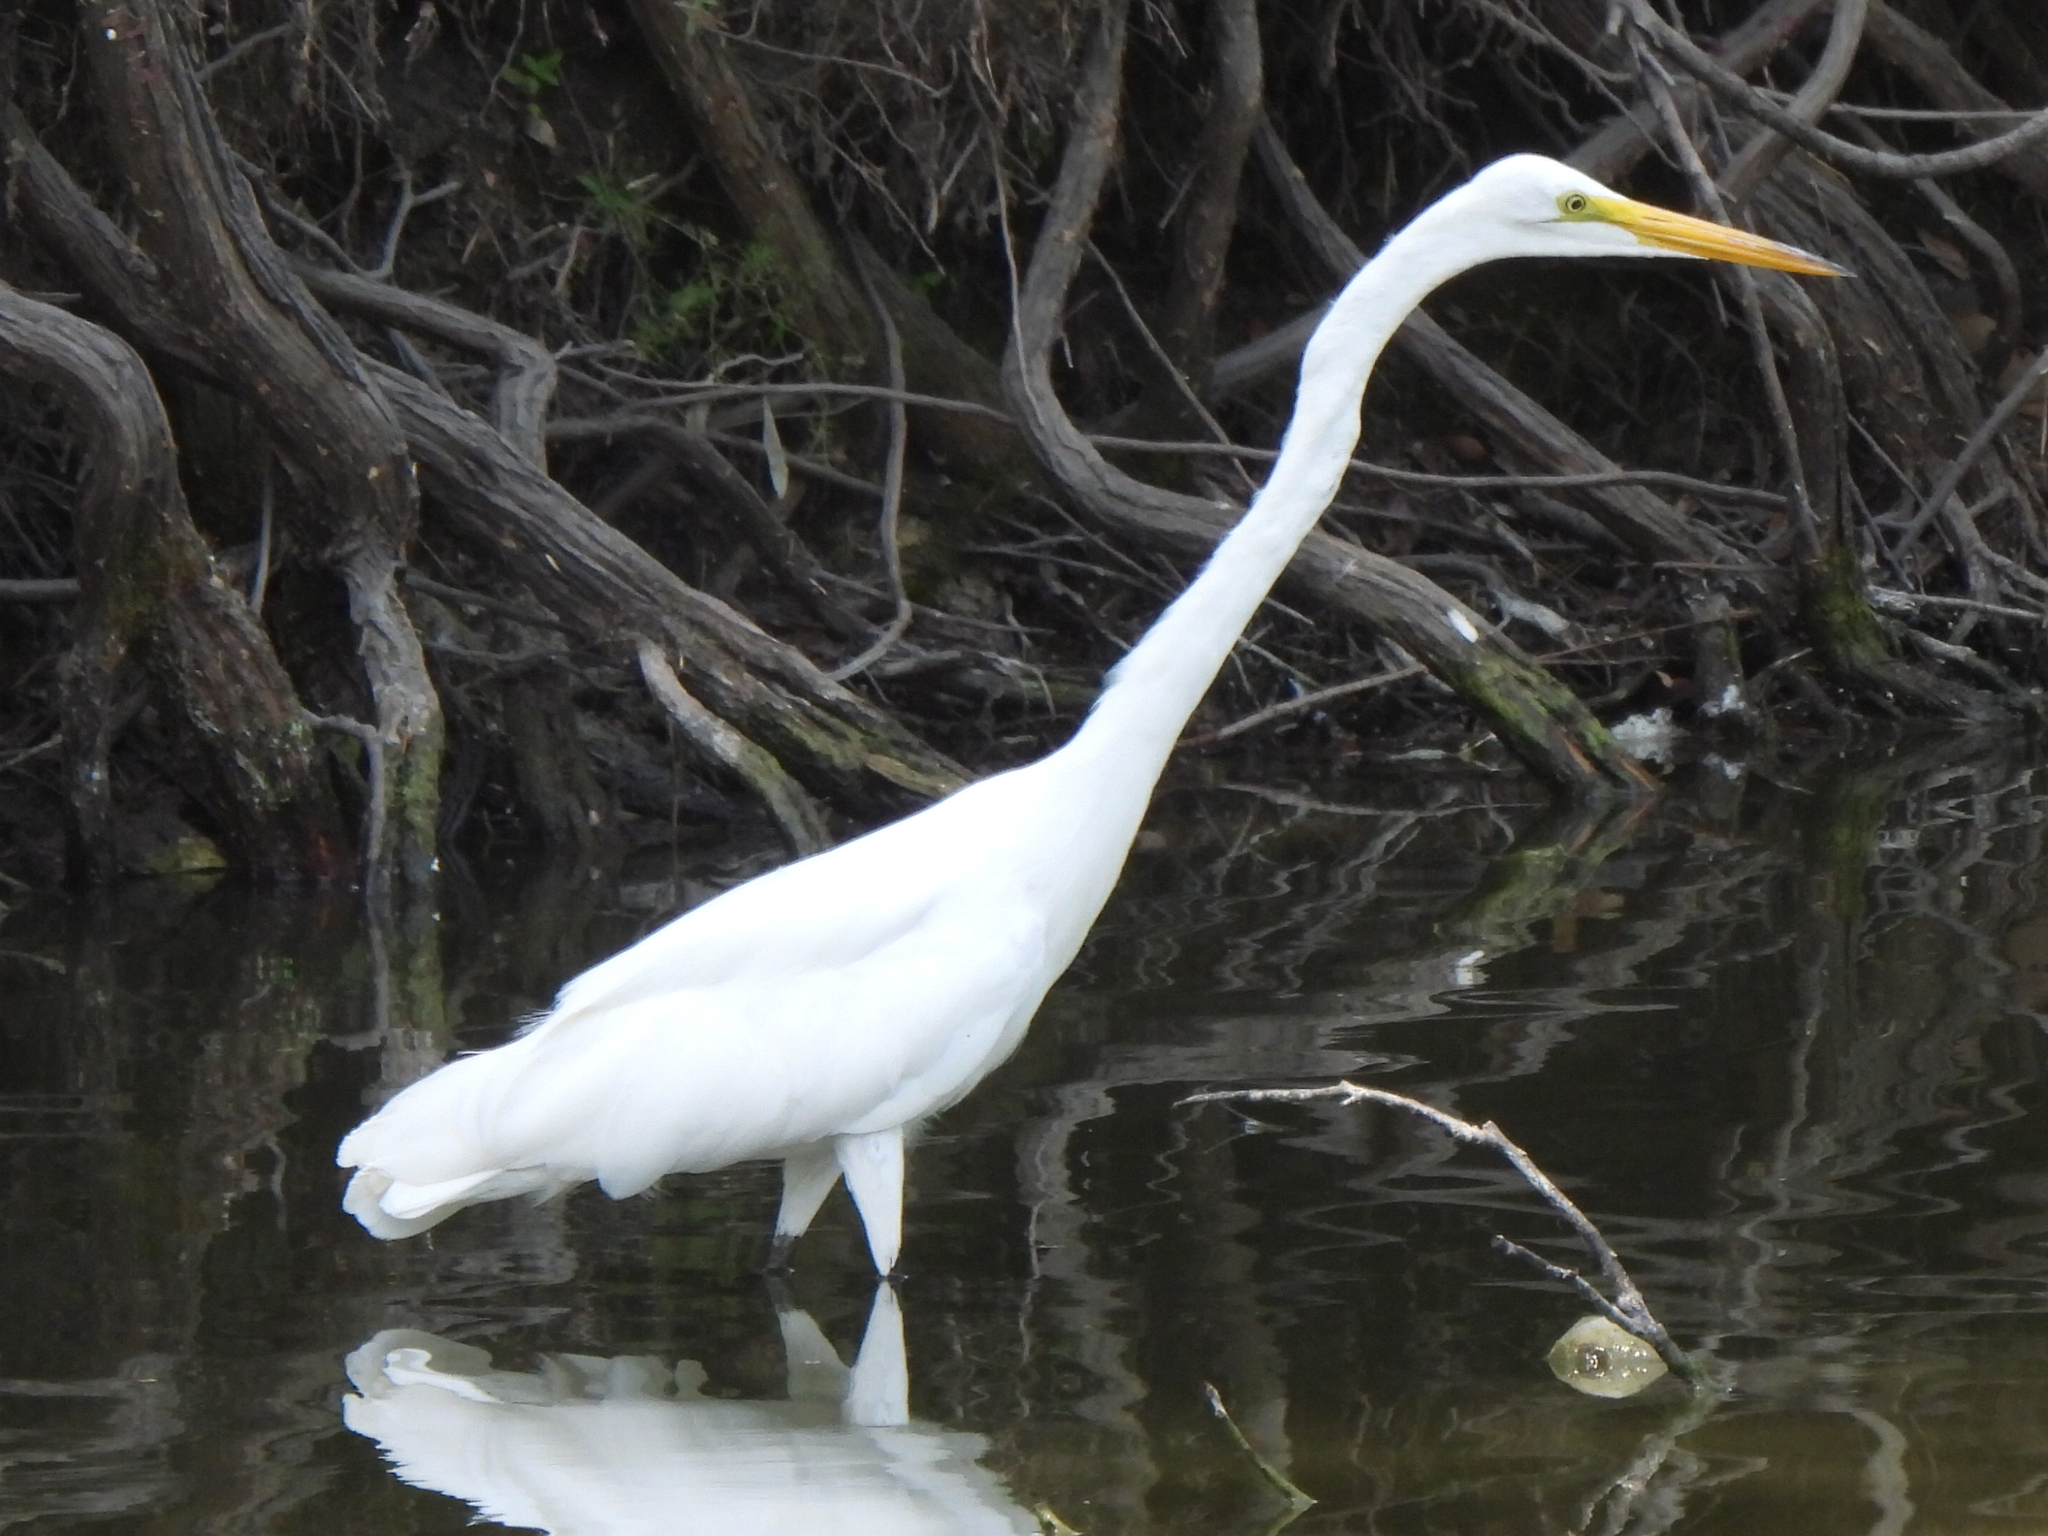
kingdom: Animalia
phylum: Chordata
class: Aves
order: Pelecaniformes
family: Ardeidae
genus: Ardea
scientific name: Ardea alba
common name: Great egret
